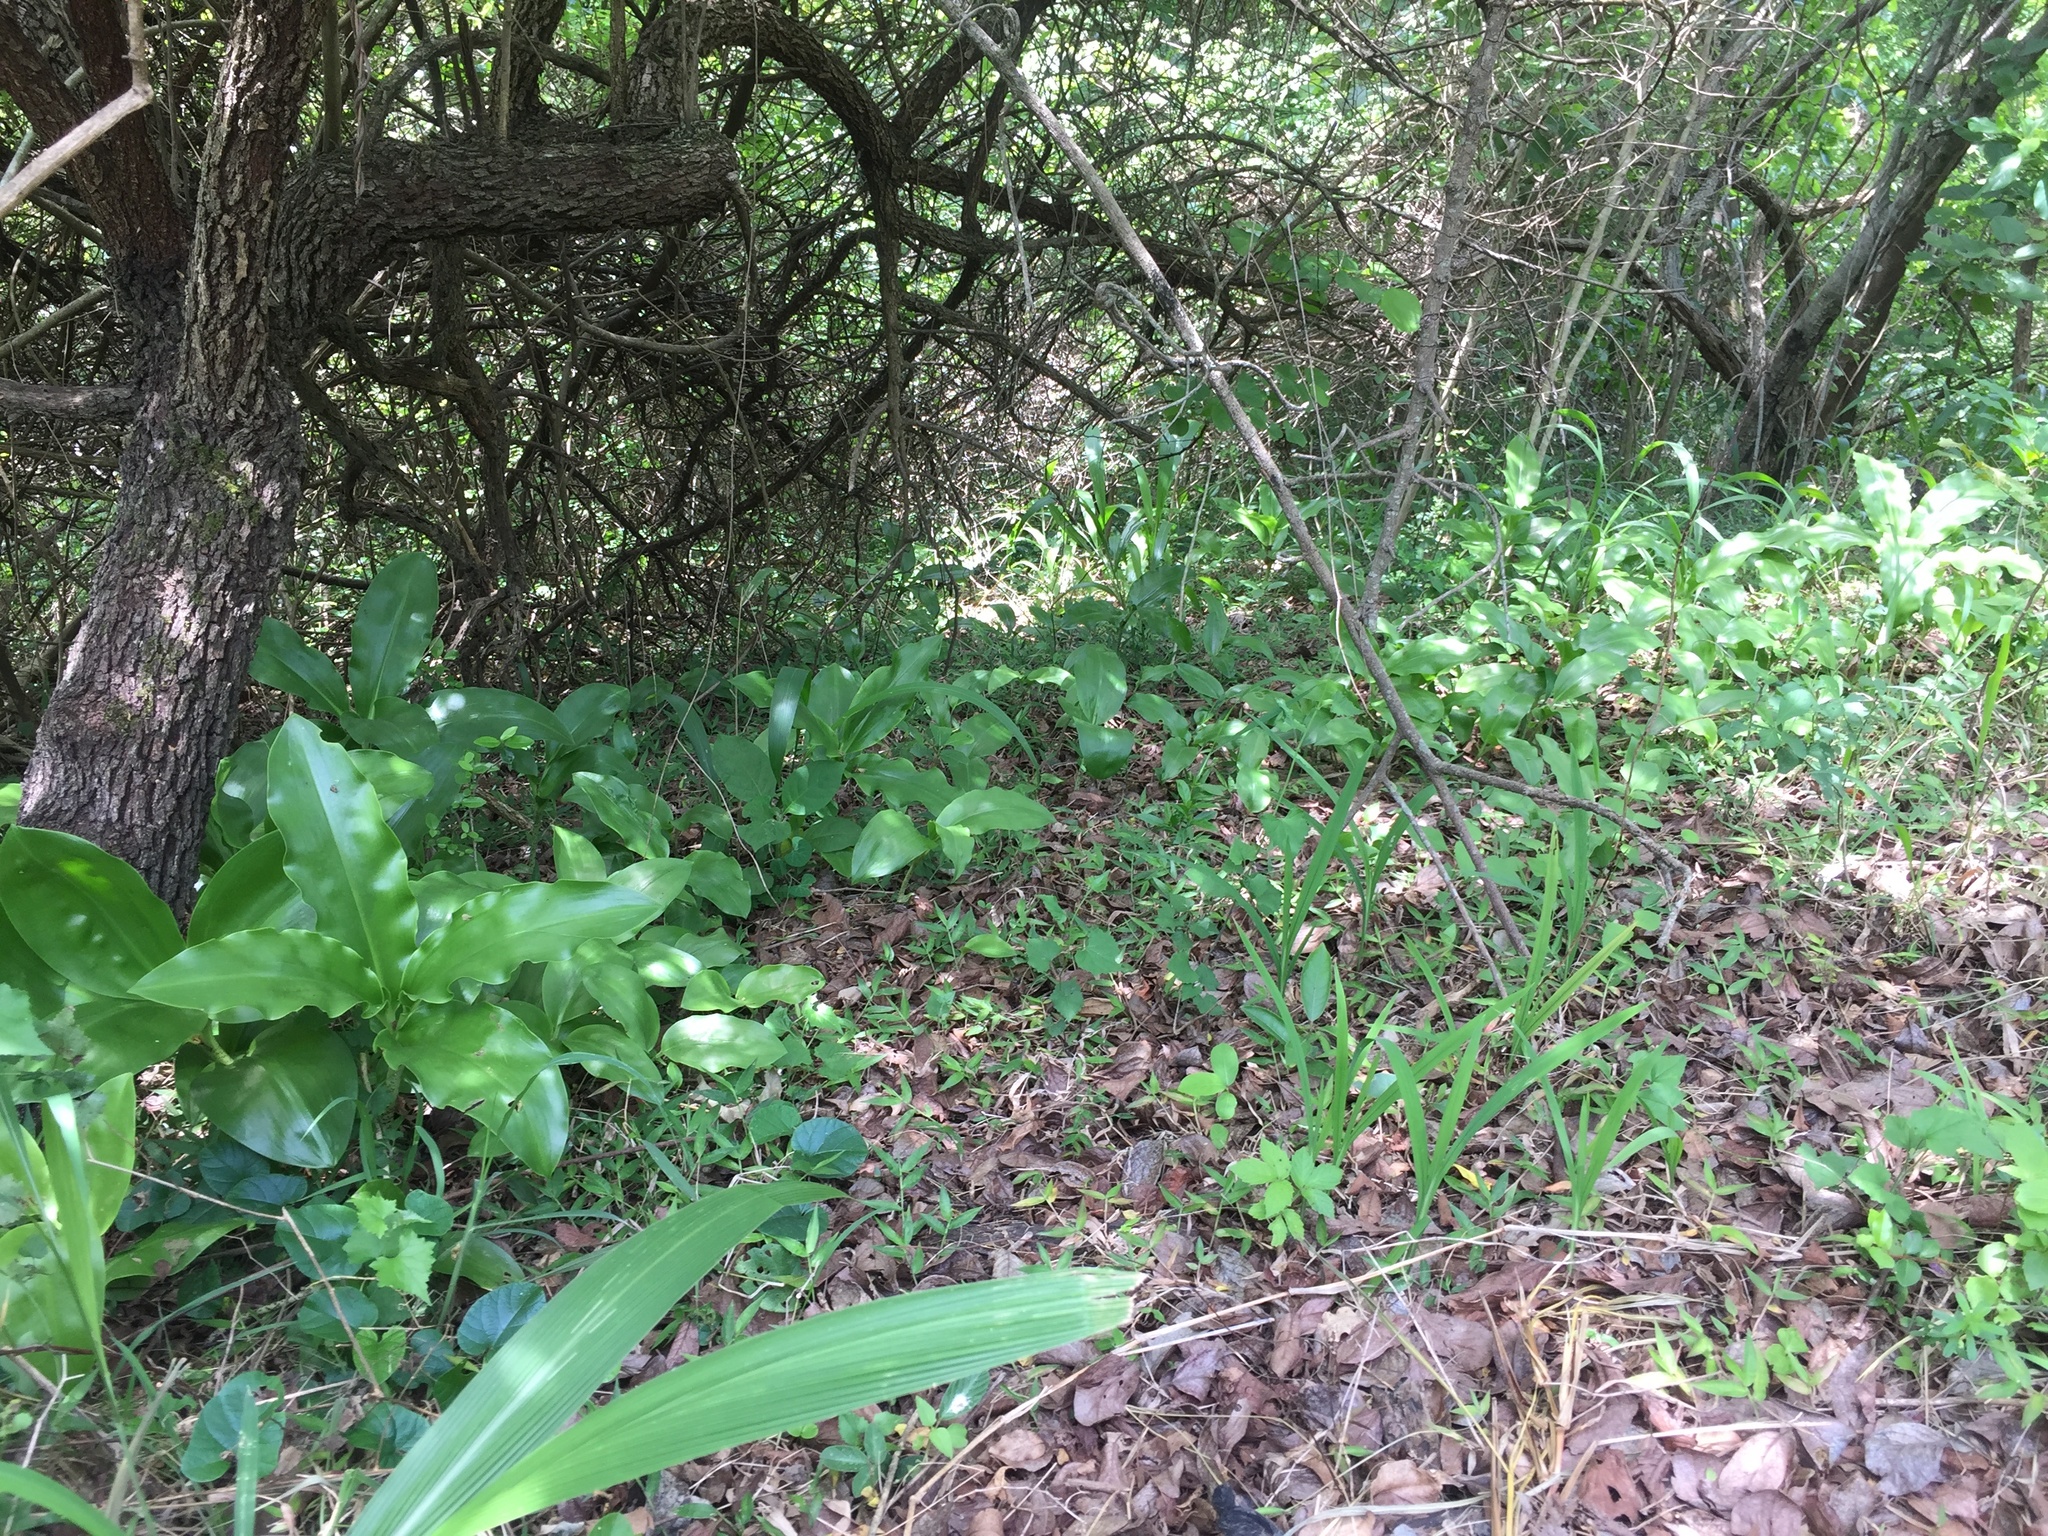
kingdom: Plantae
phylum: Tracheophyta
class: Liliopsida
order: Asparagales
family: Amaryllidaceae
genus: Scadoxus
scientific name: Scadoxus puniceus
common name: Royal-paintbrush
